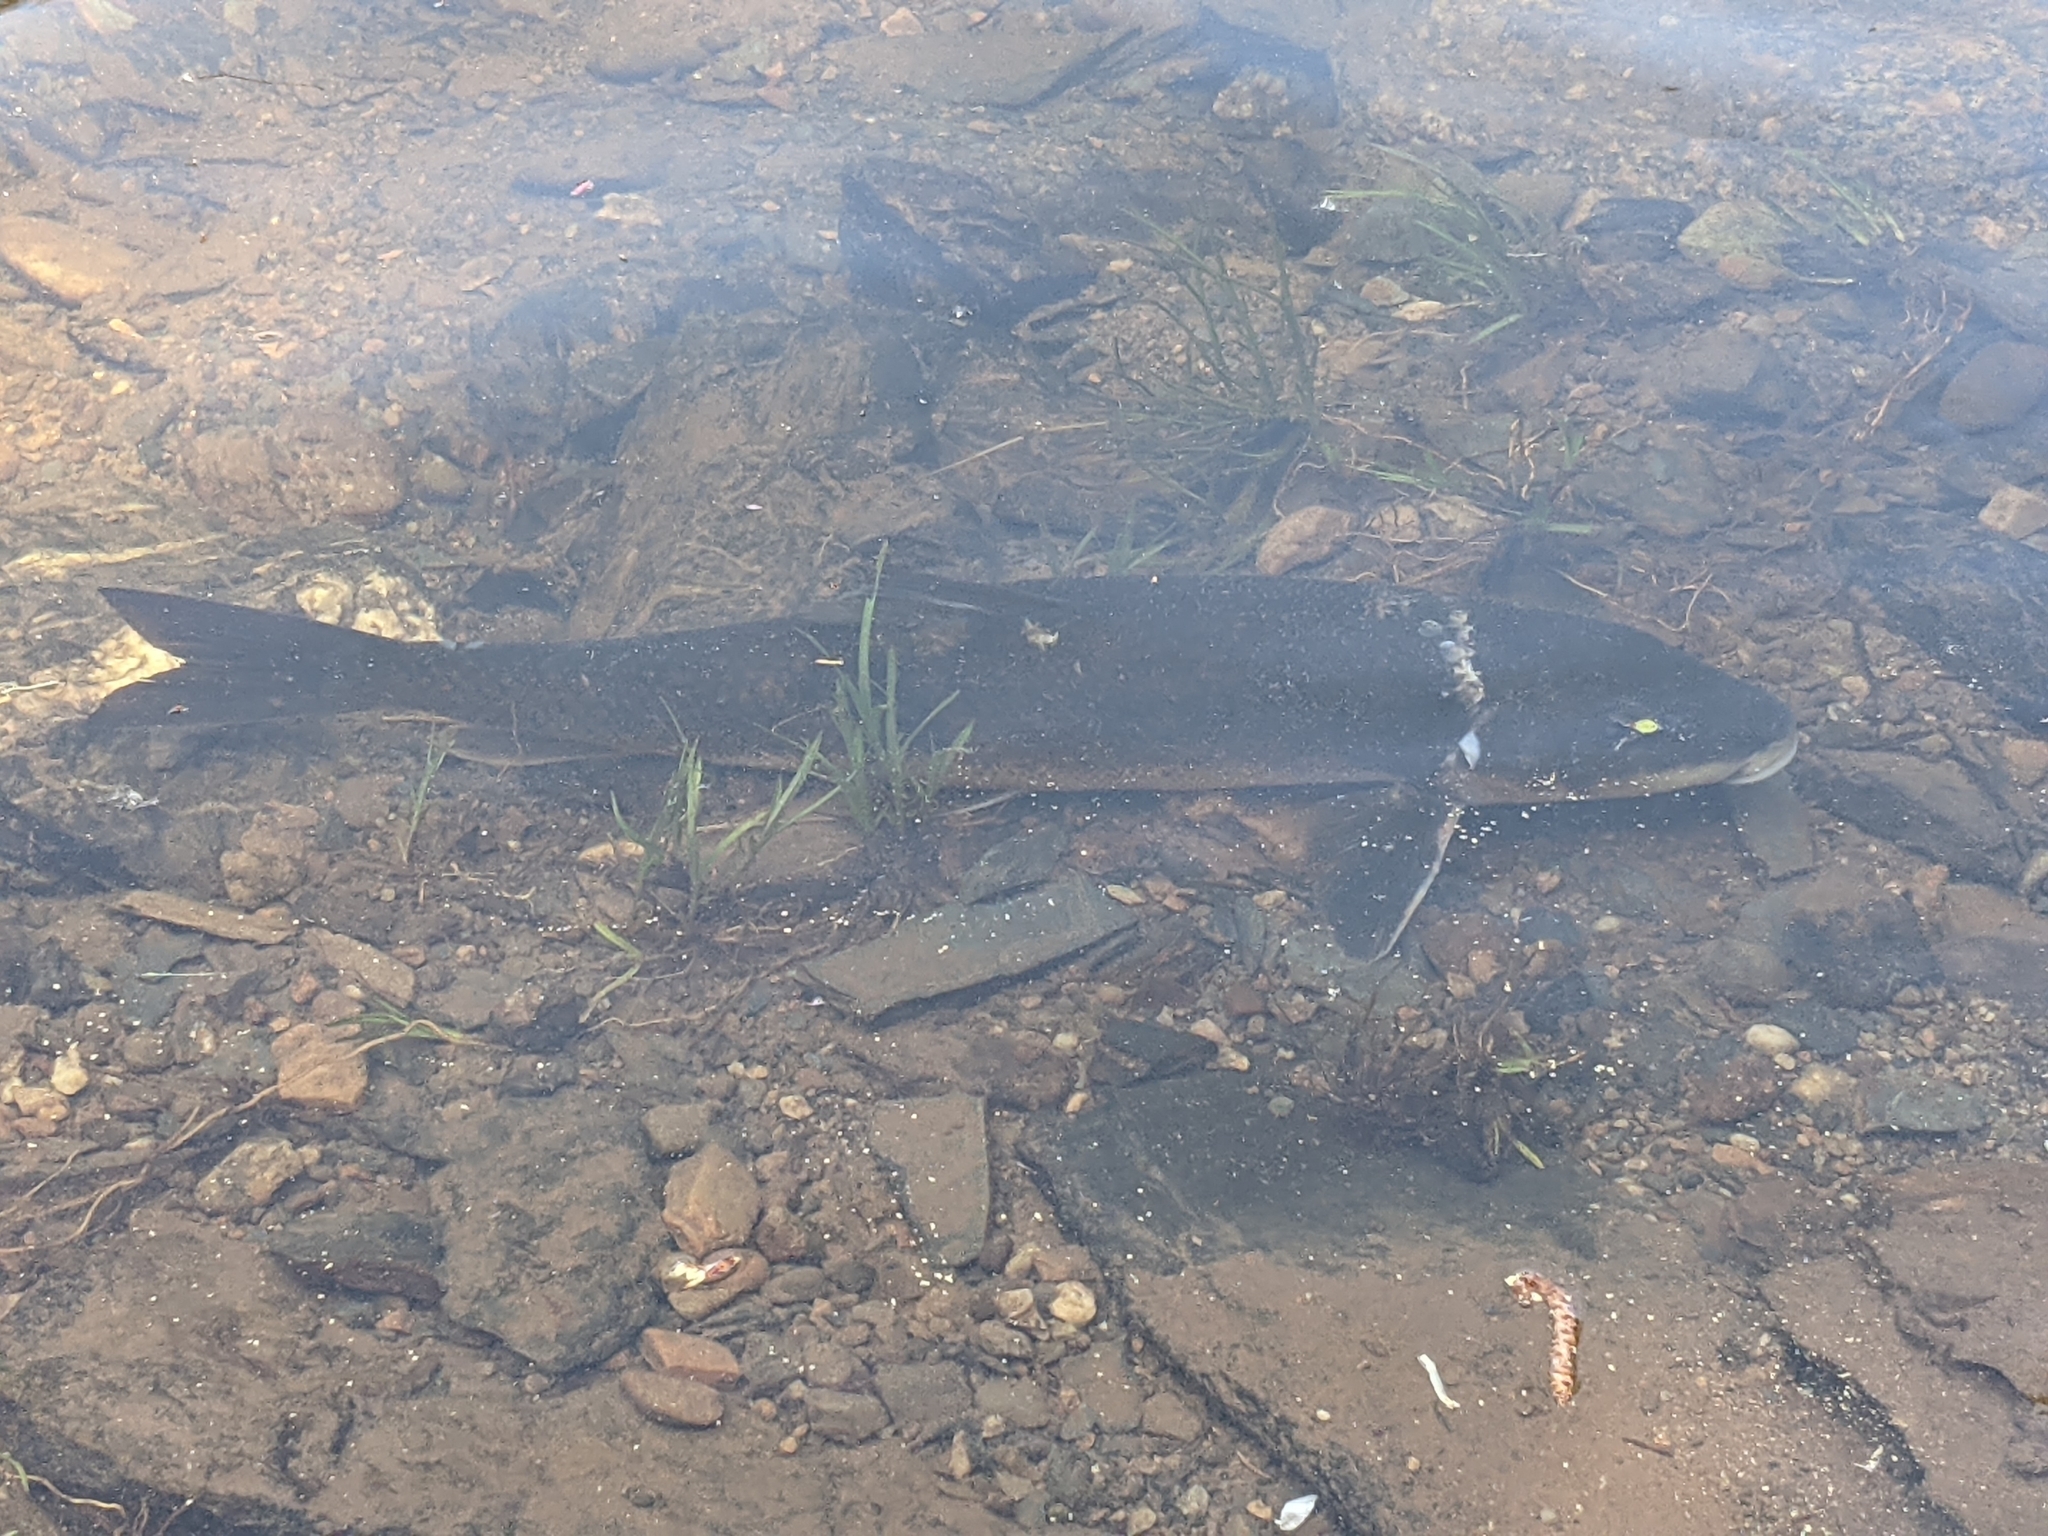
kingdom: Animalia
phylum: Chordata
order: Cypriniformes
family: Catostomidae
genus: Catostomus
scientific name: Catostomus catostomus
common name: Longnose sucker
